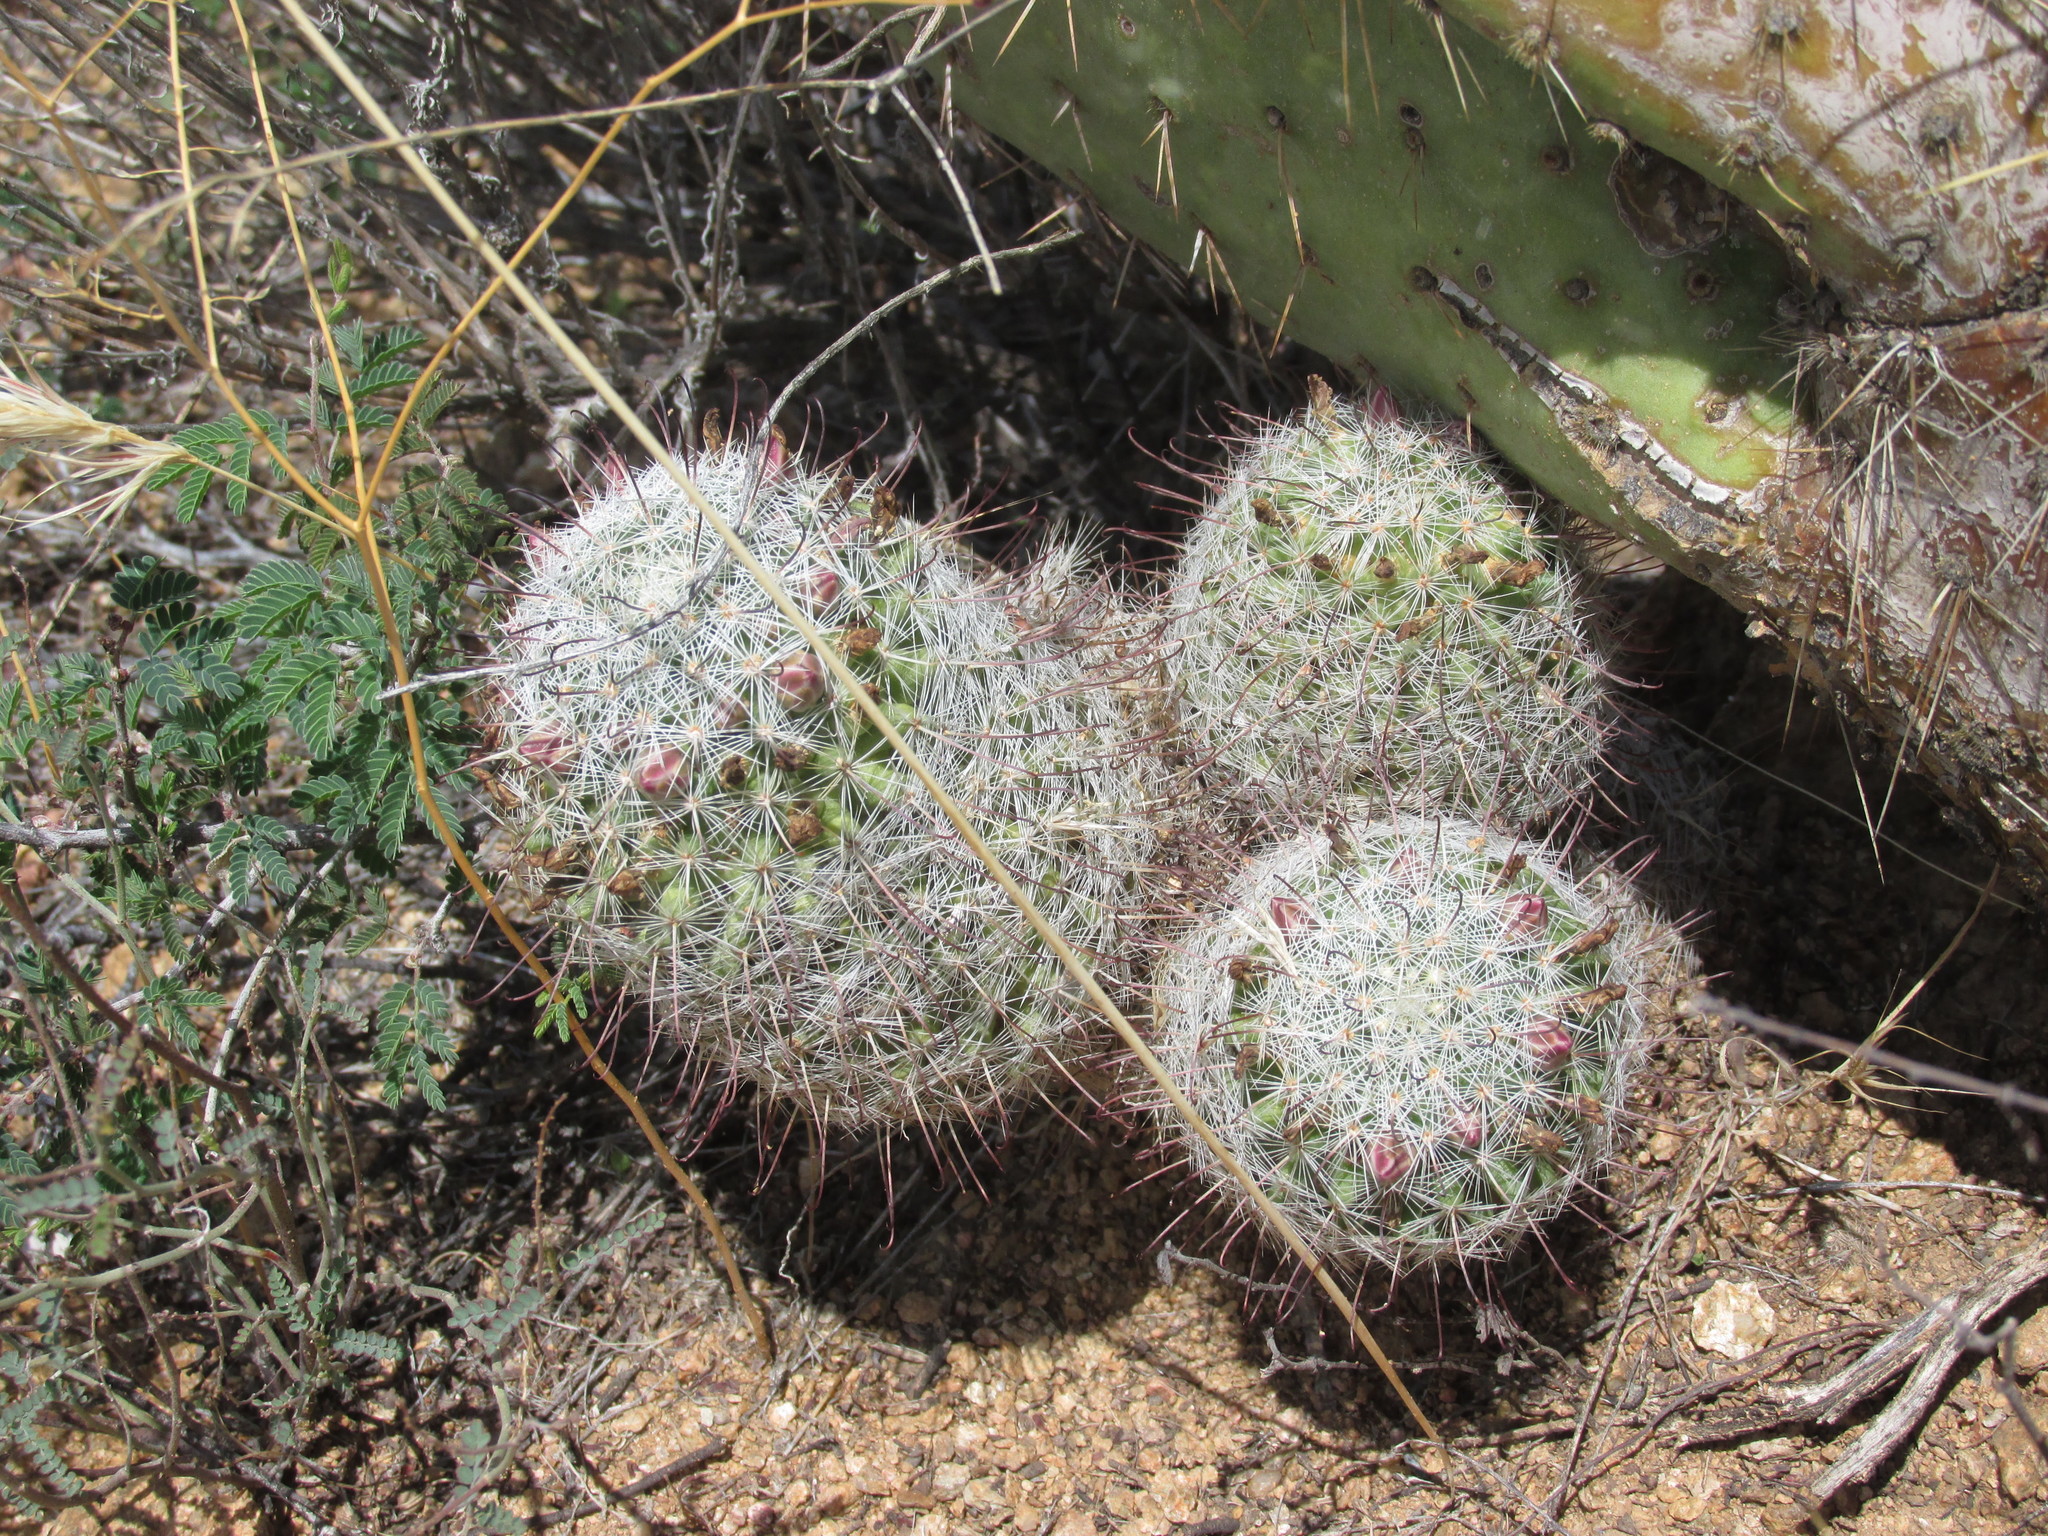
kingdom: Plantae
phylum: Tracheophyta
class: Magnoliopsida
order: Caryophyllales
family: Cactaceae
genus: Cochemiea
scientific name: Cochemiea grahamii
